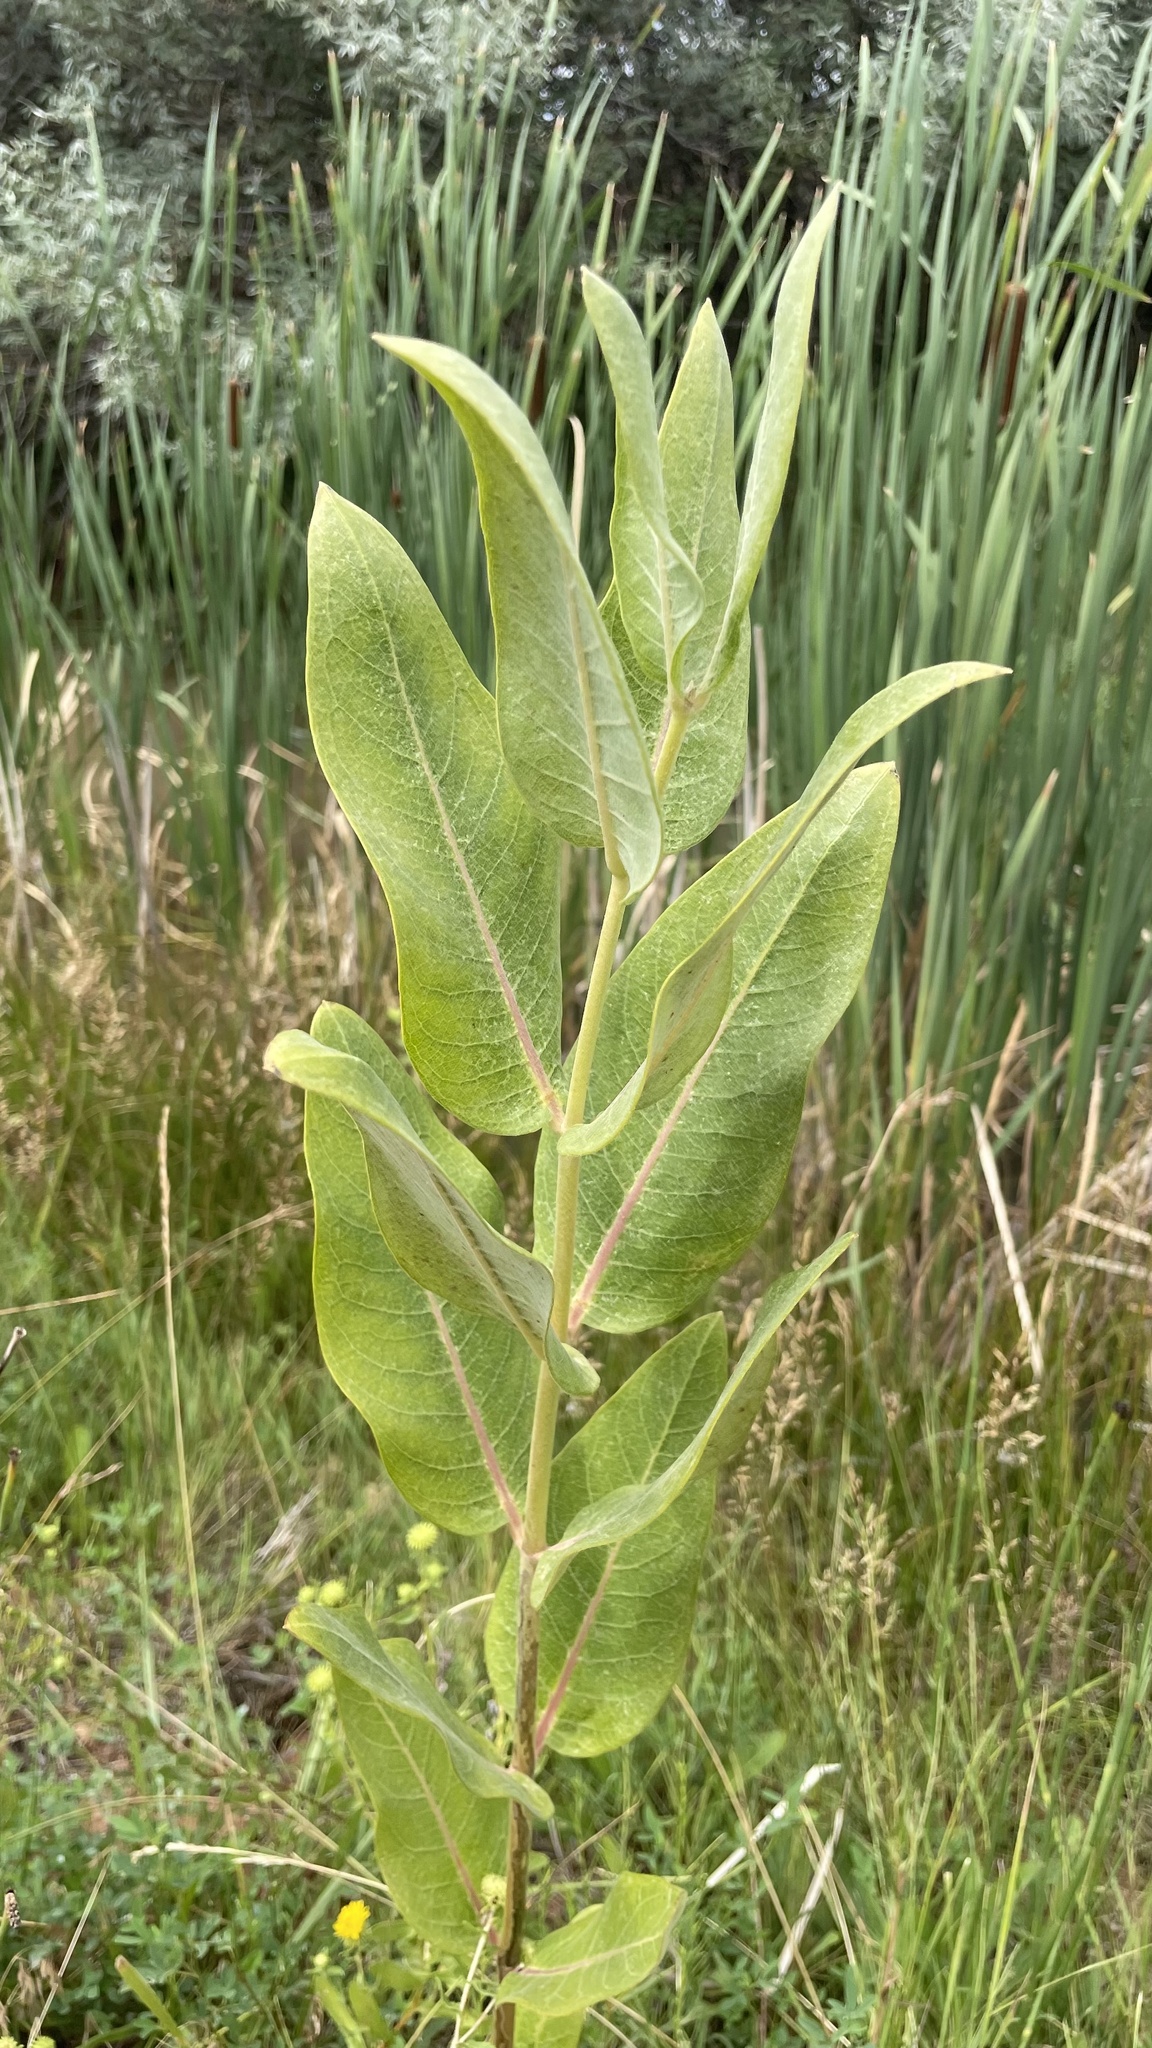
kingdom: Plantae
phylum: Tracheophyta
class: Magnoliopsida
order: Gentianales
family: Apocynaceae
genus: Asclepias
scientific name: Asclepias speciosa
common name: Showy milkweed
